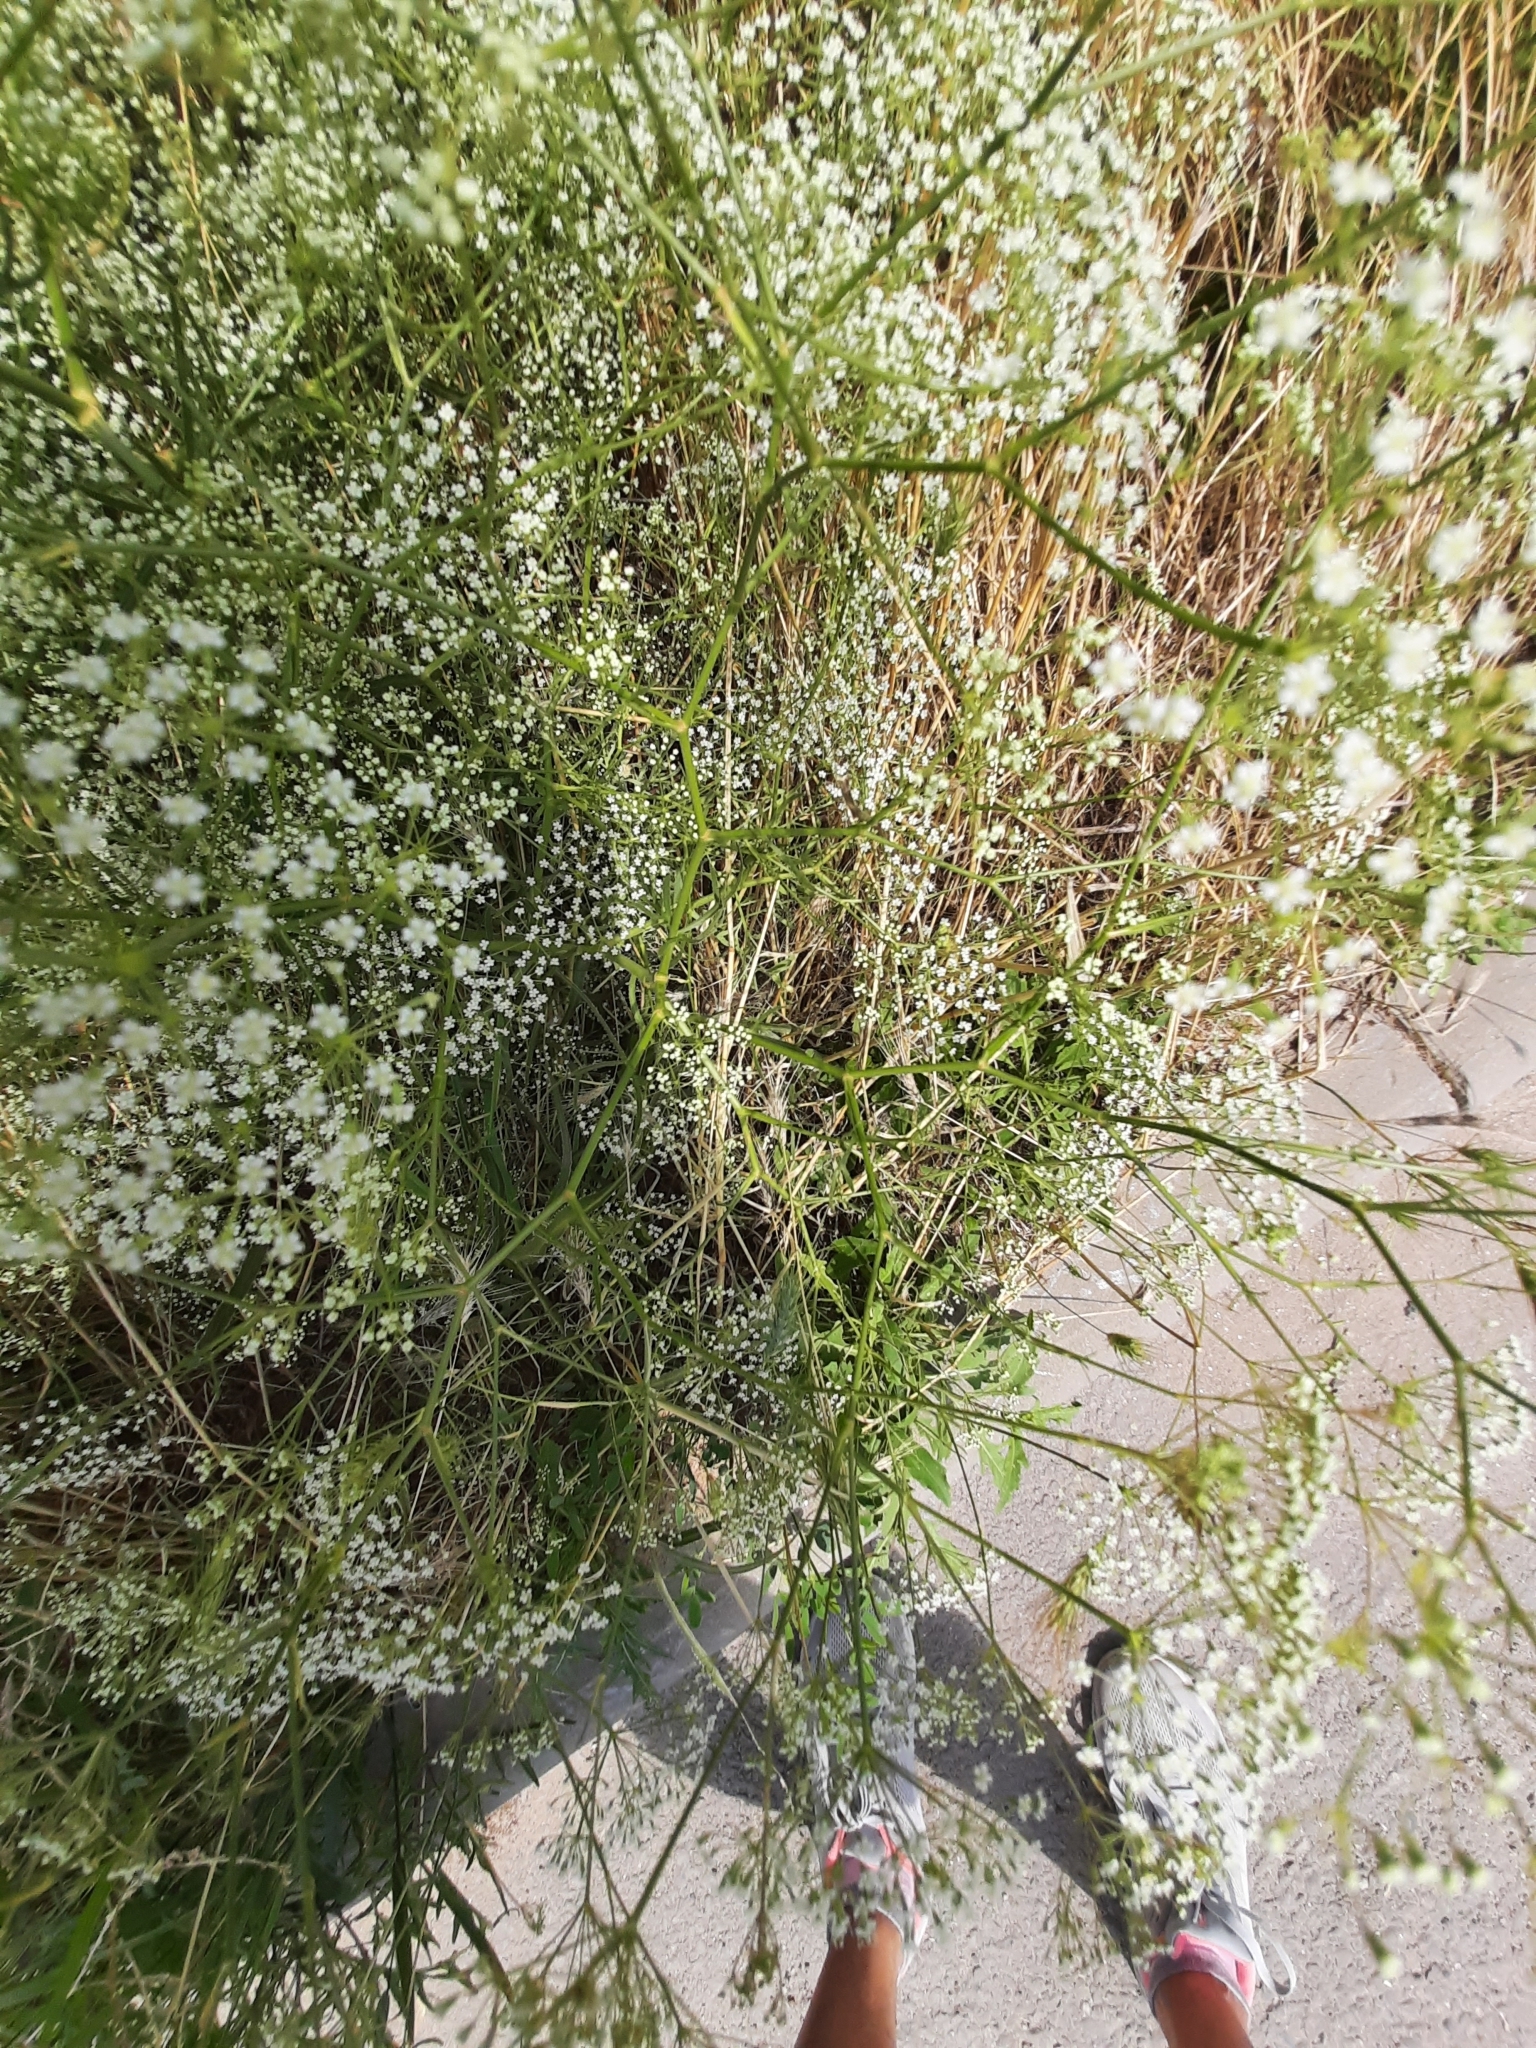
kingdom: Plantae
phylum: Tracheophyta
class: Magnoliopsida
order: Apiales
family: Apiaceae
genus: Falcaria
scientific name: Falcaria vulgaris
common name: Longleaf
